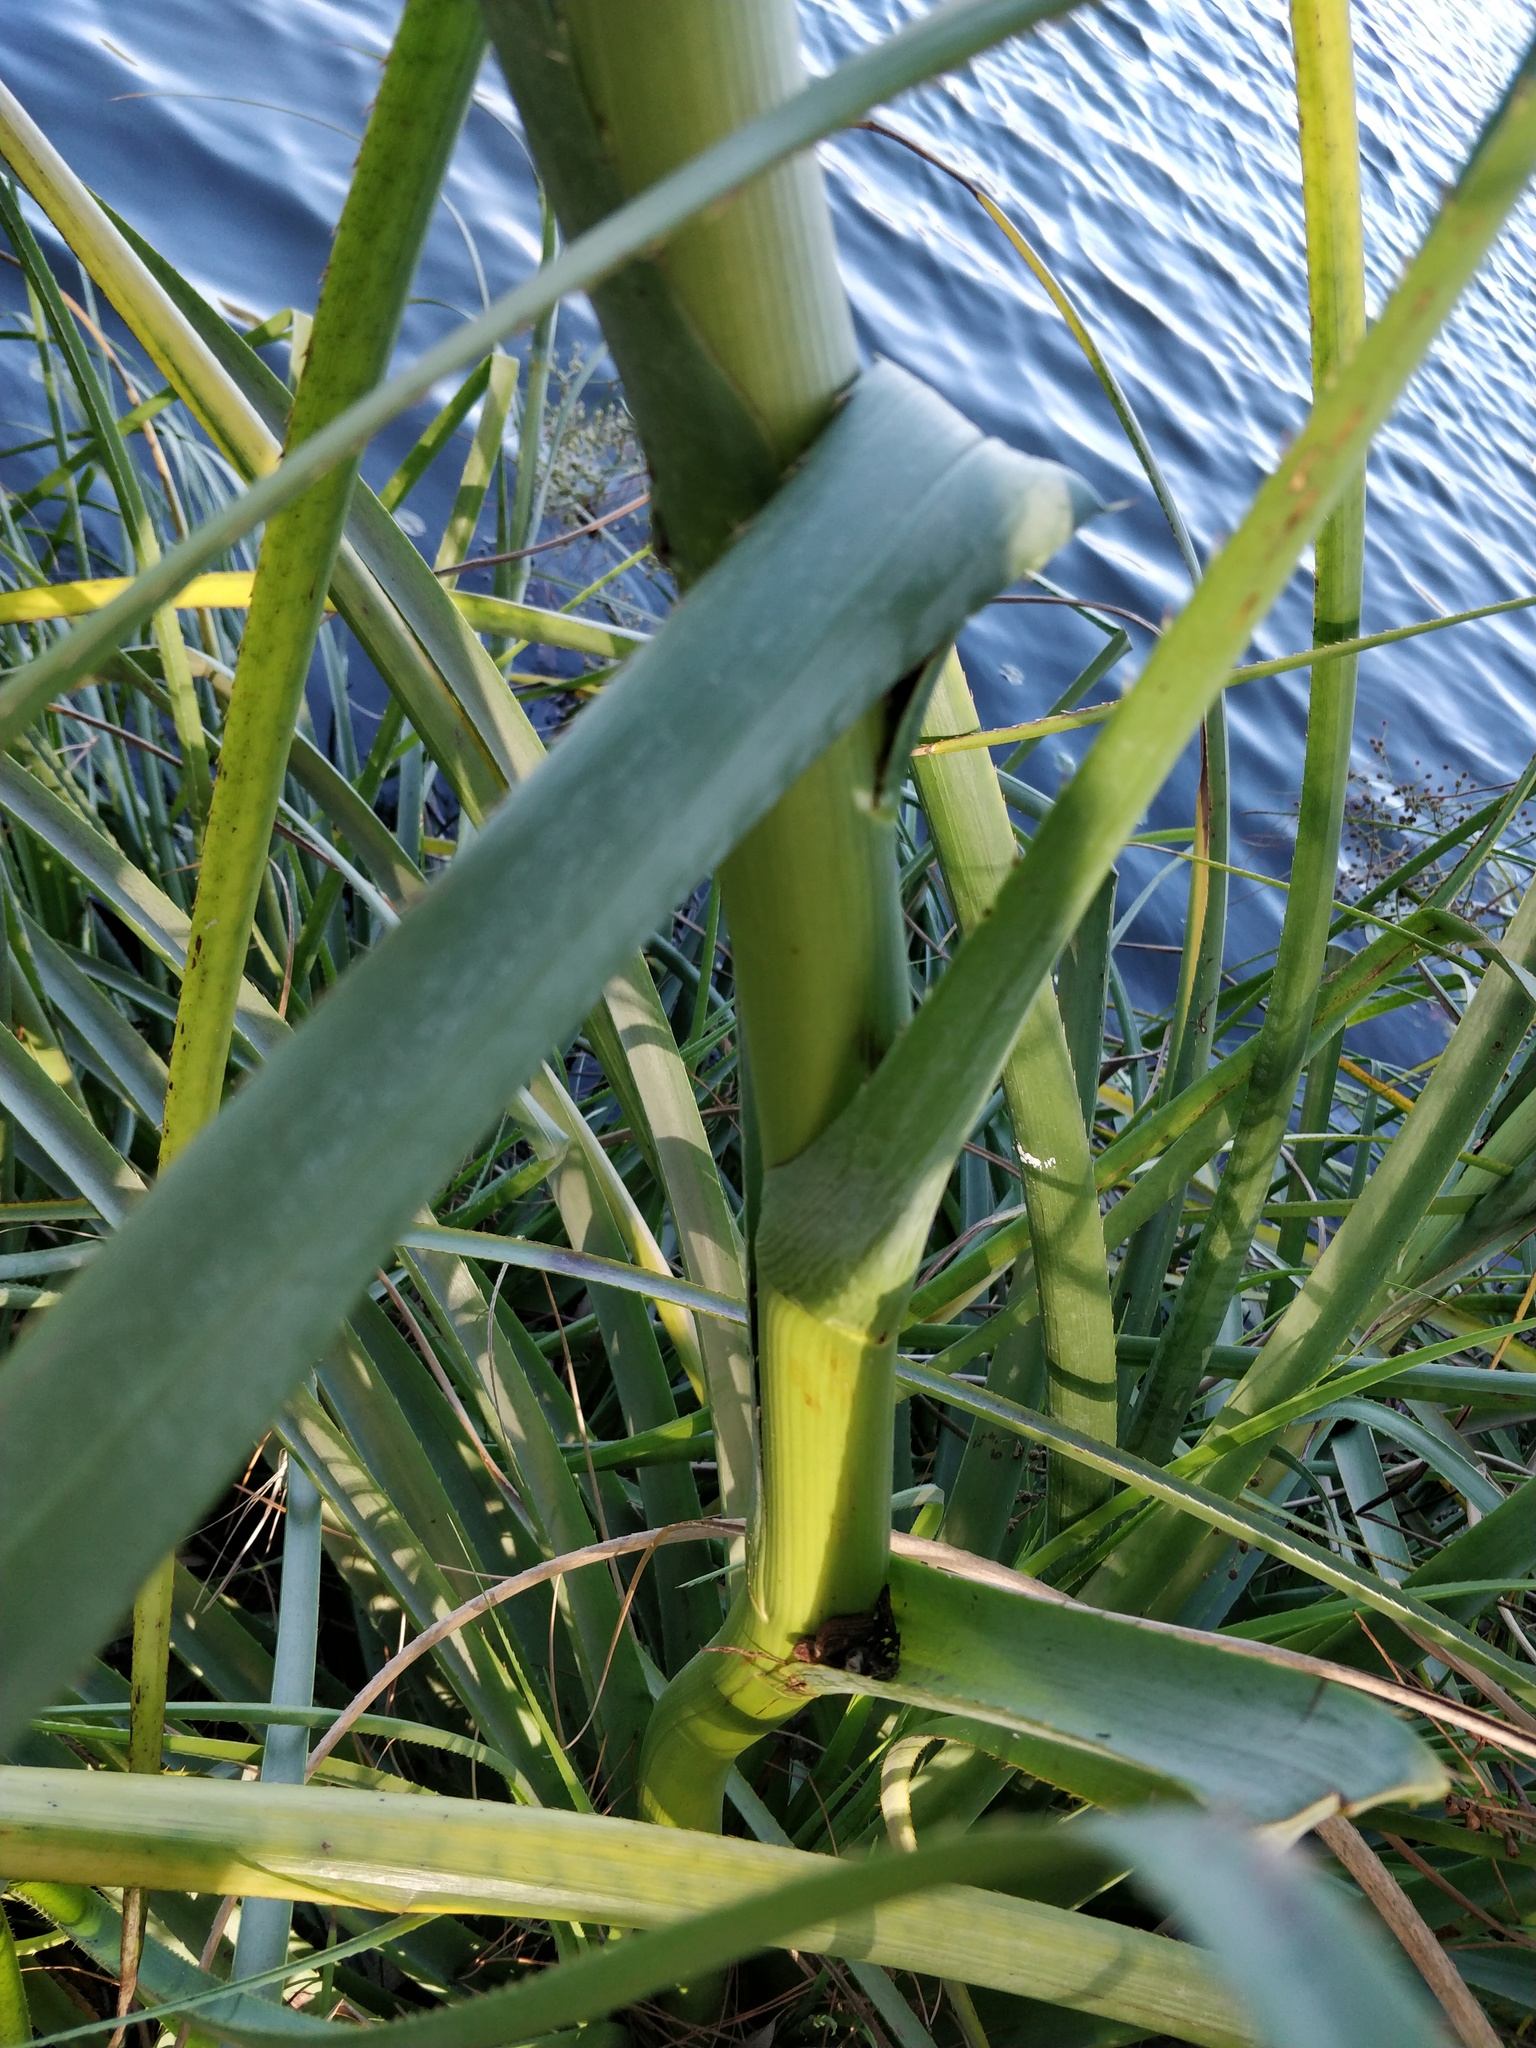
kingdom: Plantae
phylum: Tracheophyta
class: Magnoliopsida
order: Apiales
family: Apiaceae
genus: Eryngium
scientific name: Eryngium pandanifolium
